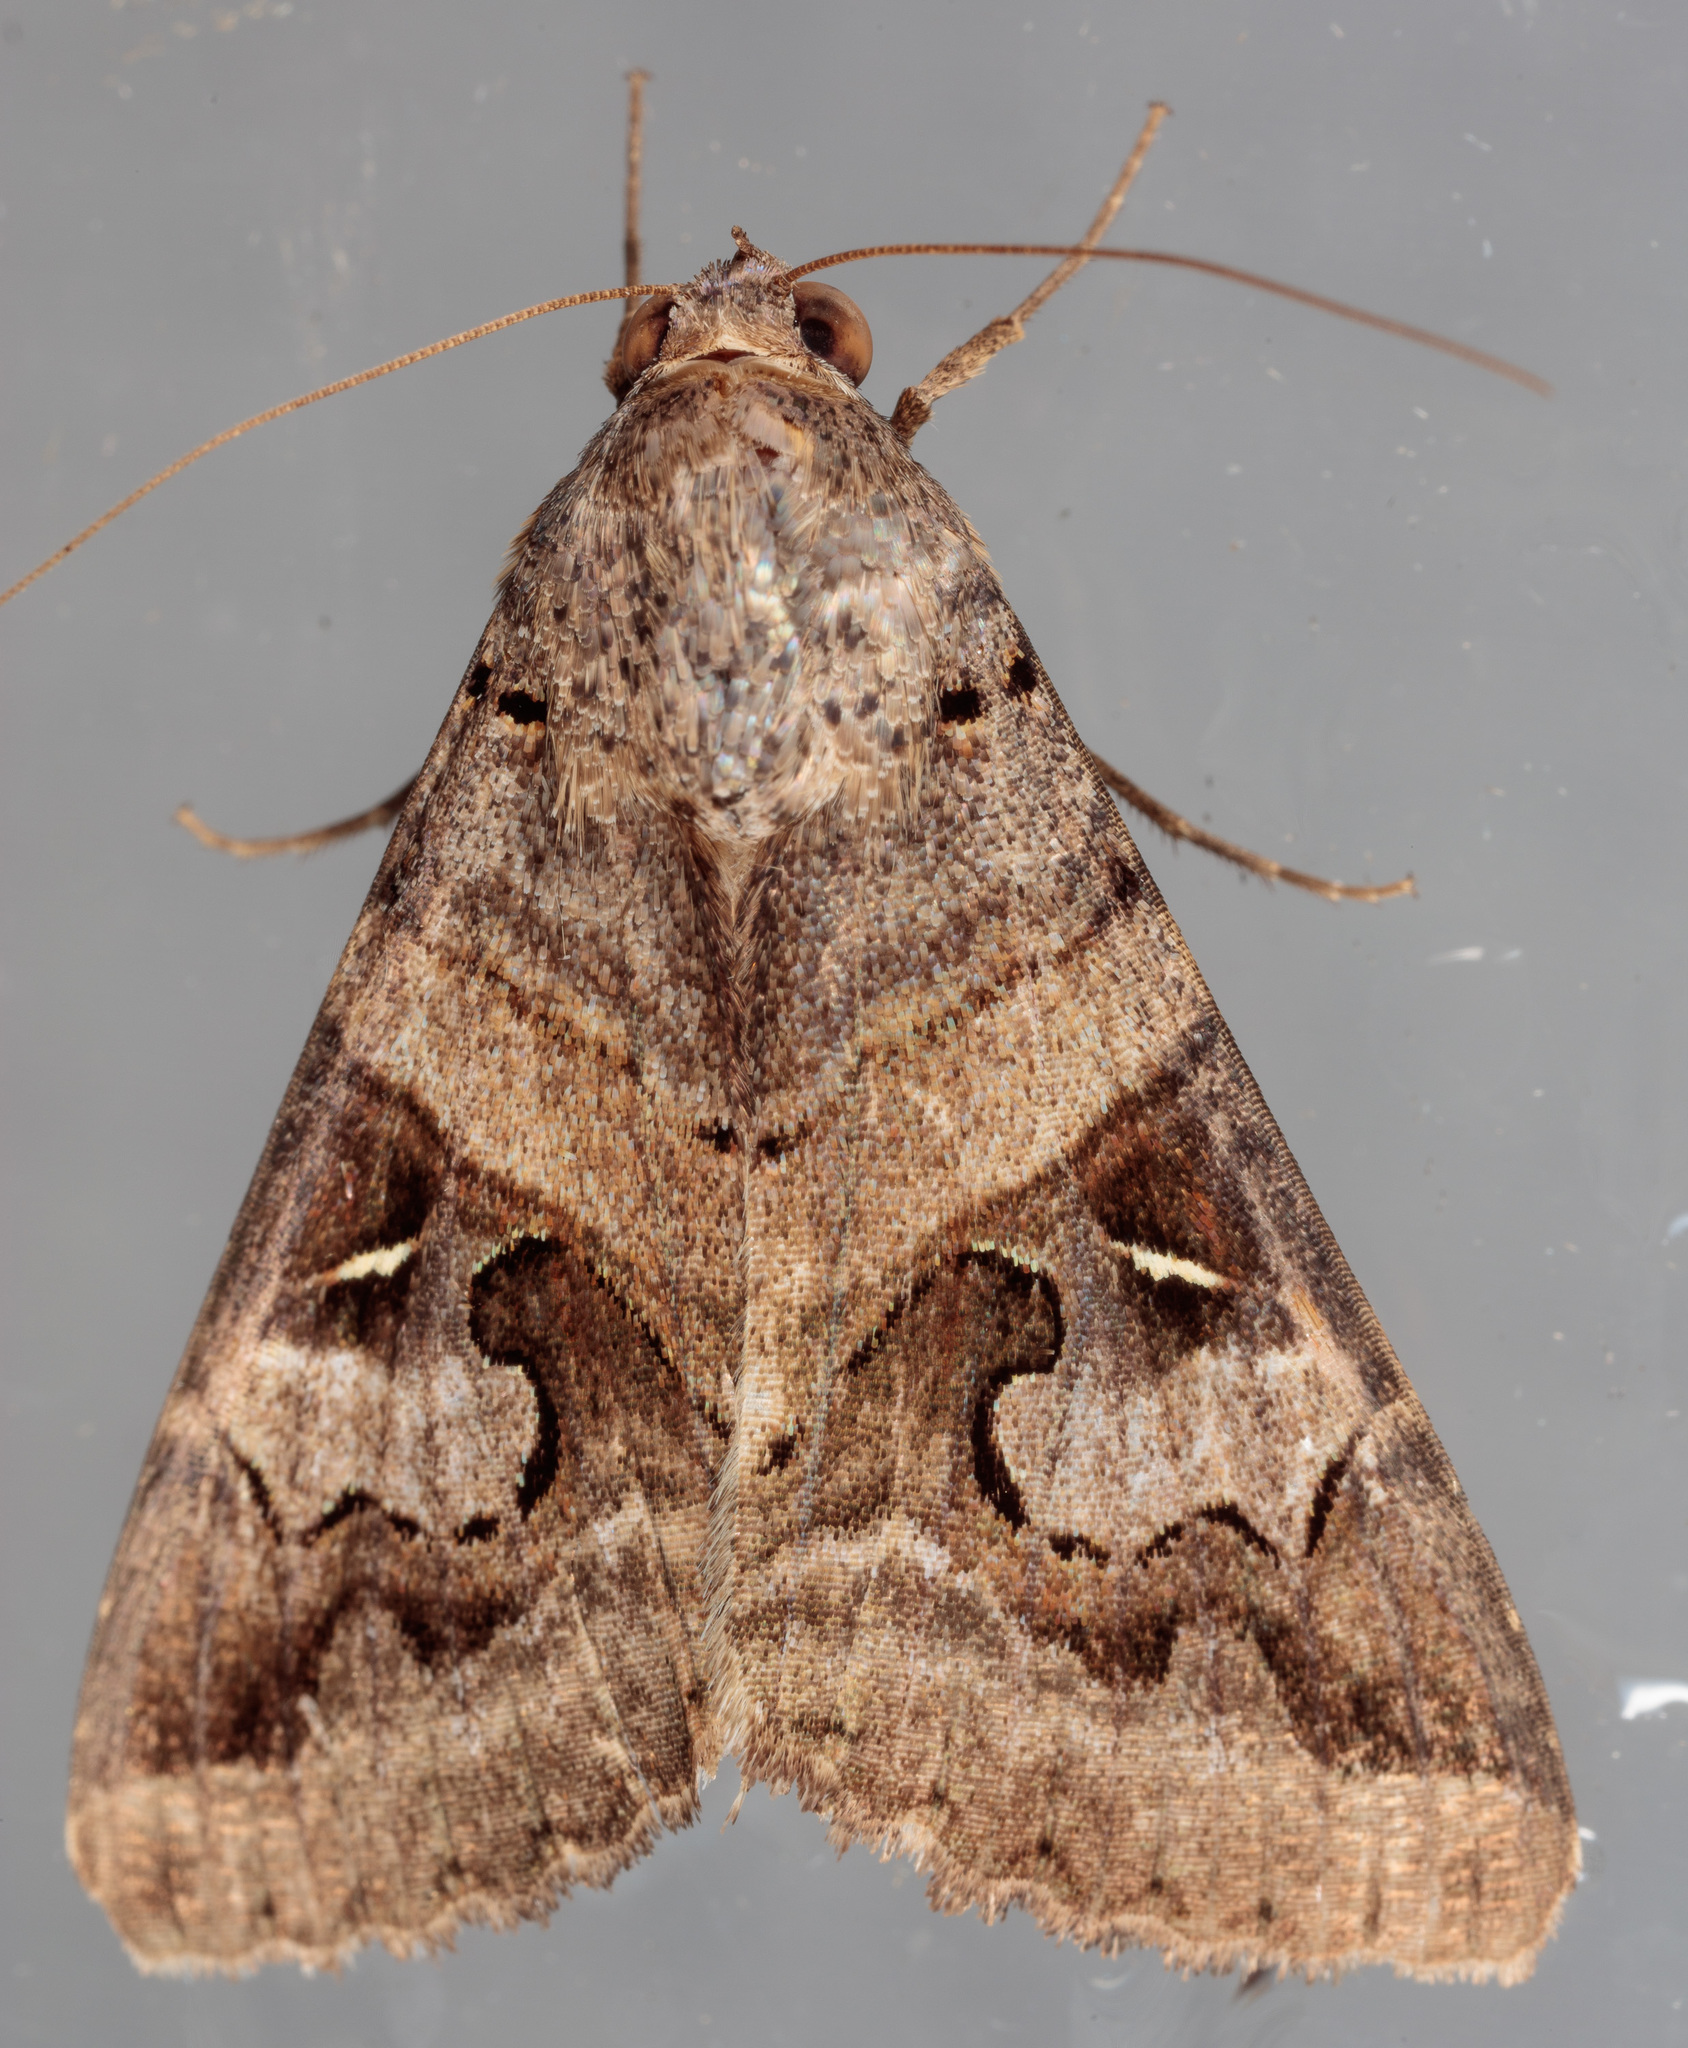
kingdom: Animalia
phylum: Arthropoda
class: Insecta
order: Lepidoptera
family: Erebidae
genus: Melipotis
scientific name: Melipotis indomita
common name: Moth
